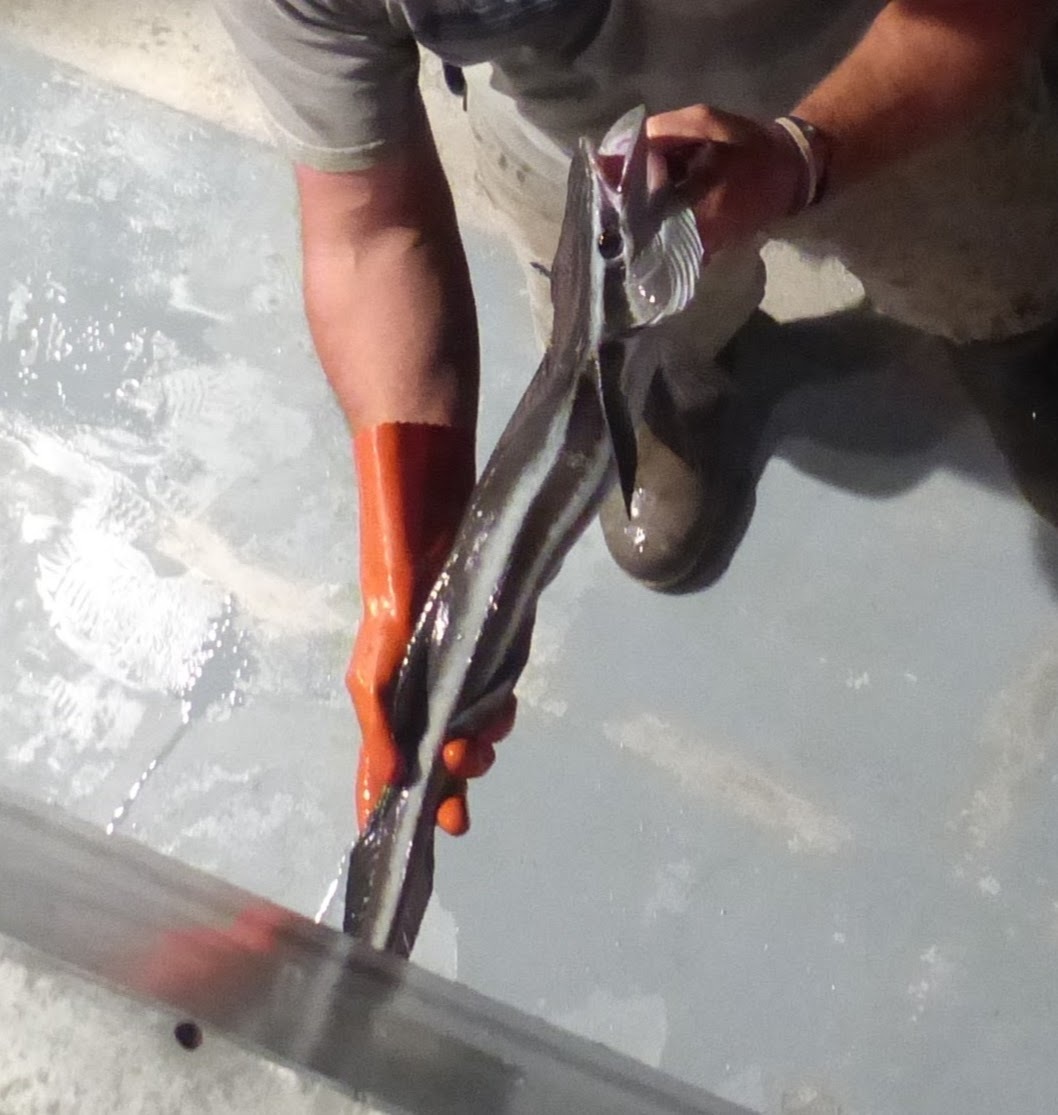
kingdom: Animalia
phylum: Chordata
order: Perciformes
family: Echeneidae
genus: Echeneis
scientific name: Echeneis naucrates
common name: Sharksucker
